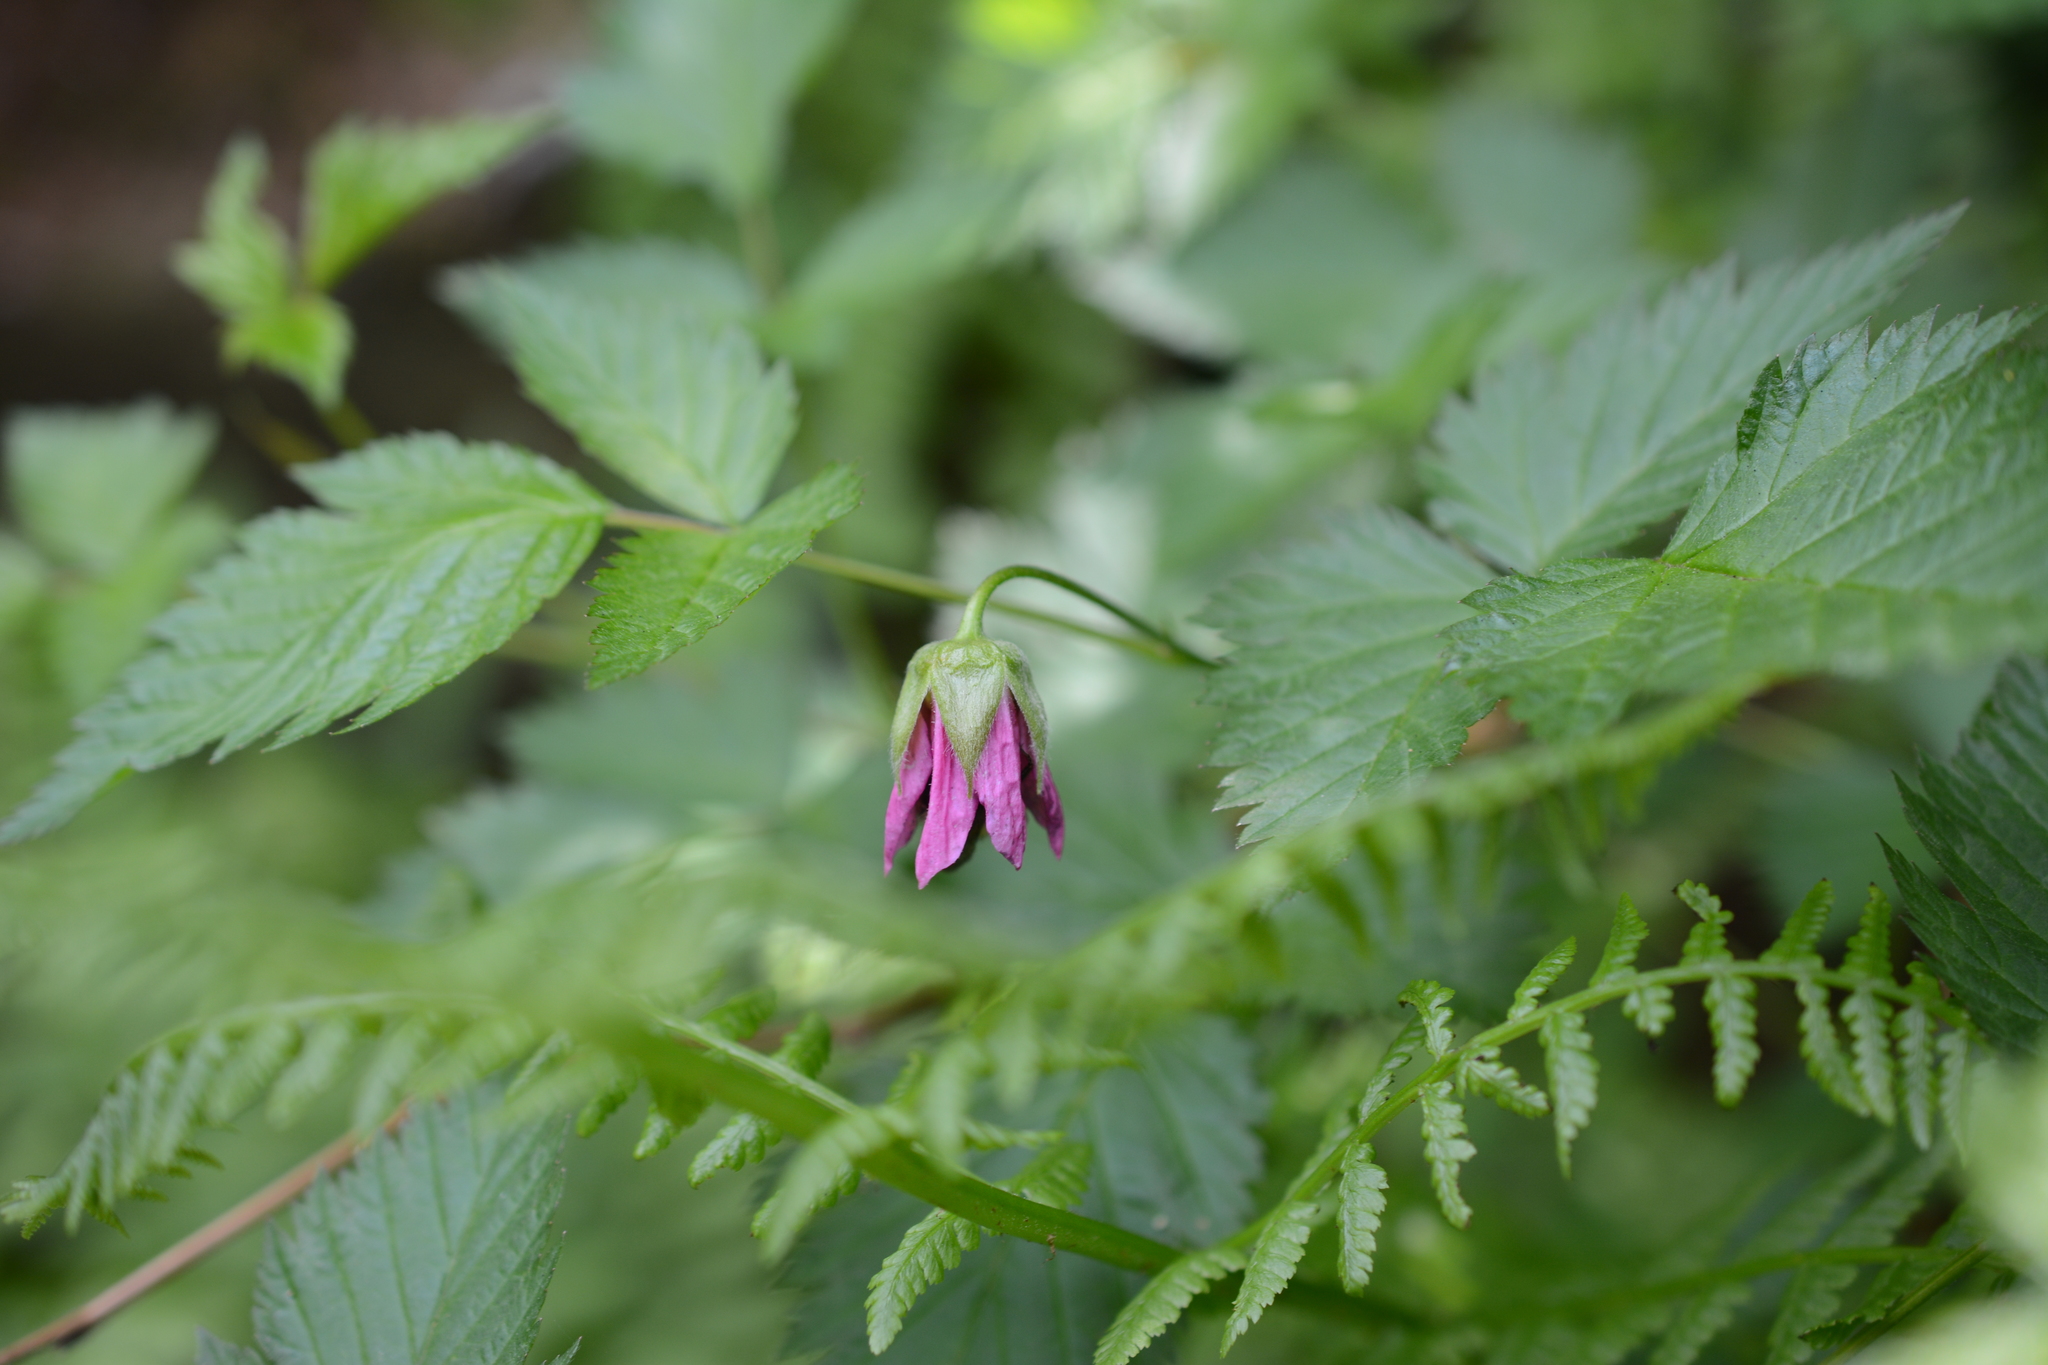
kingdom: Plantae
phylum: Tracheophyta
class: Magnoliopsida
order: Rosales
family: Rosaceae
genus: Rubus
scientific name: Rubus spectabilis
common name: Salmonberry
